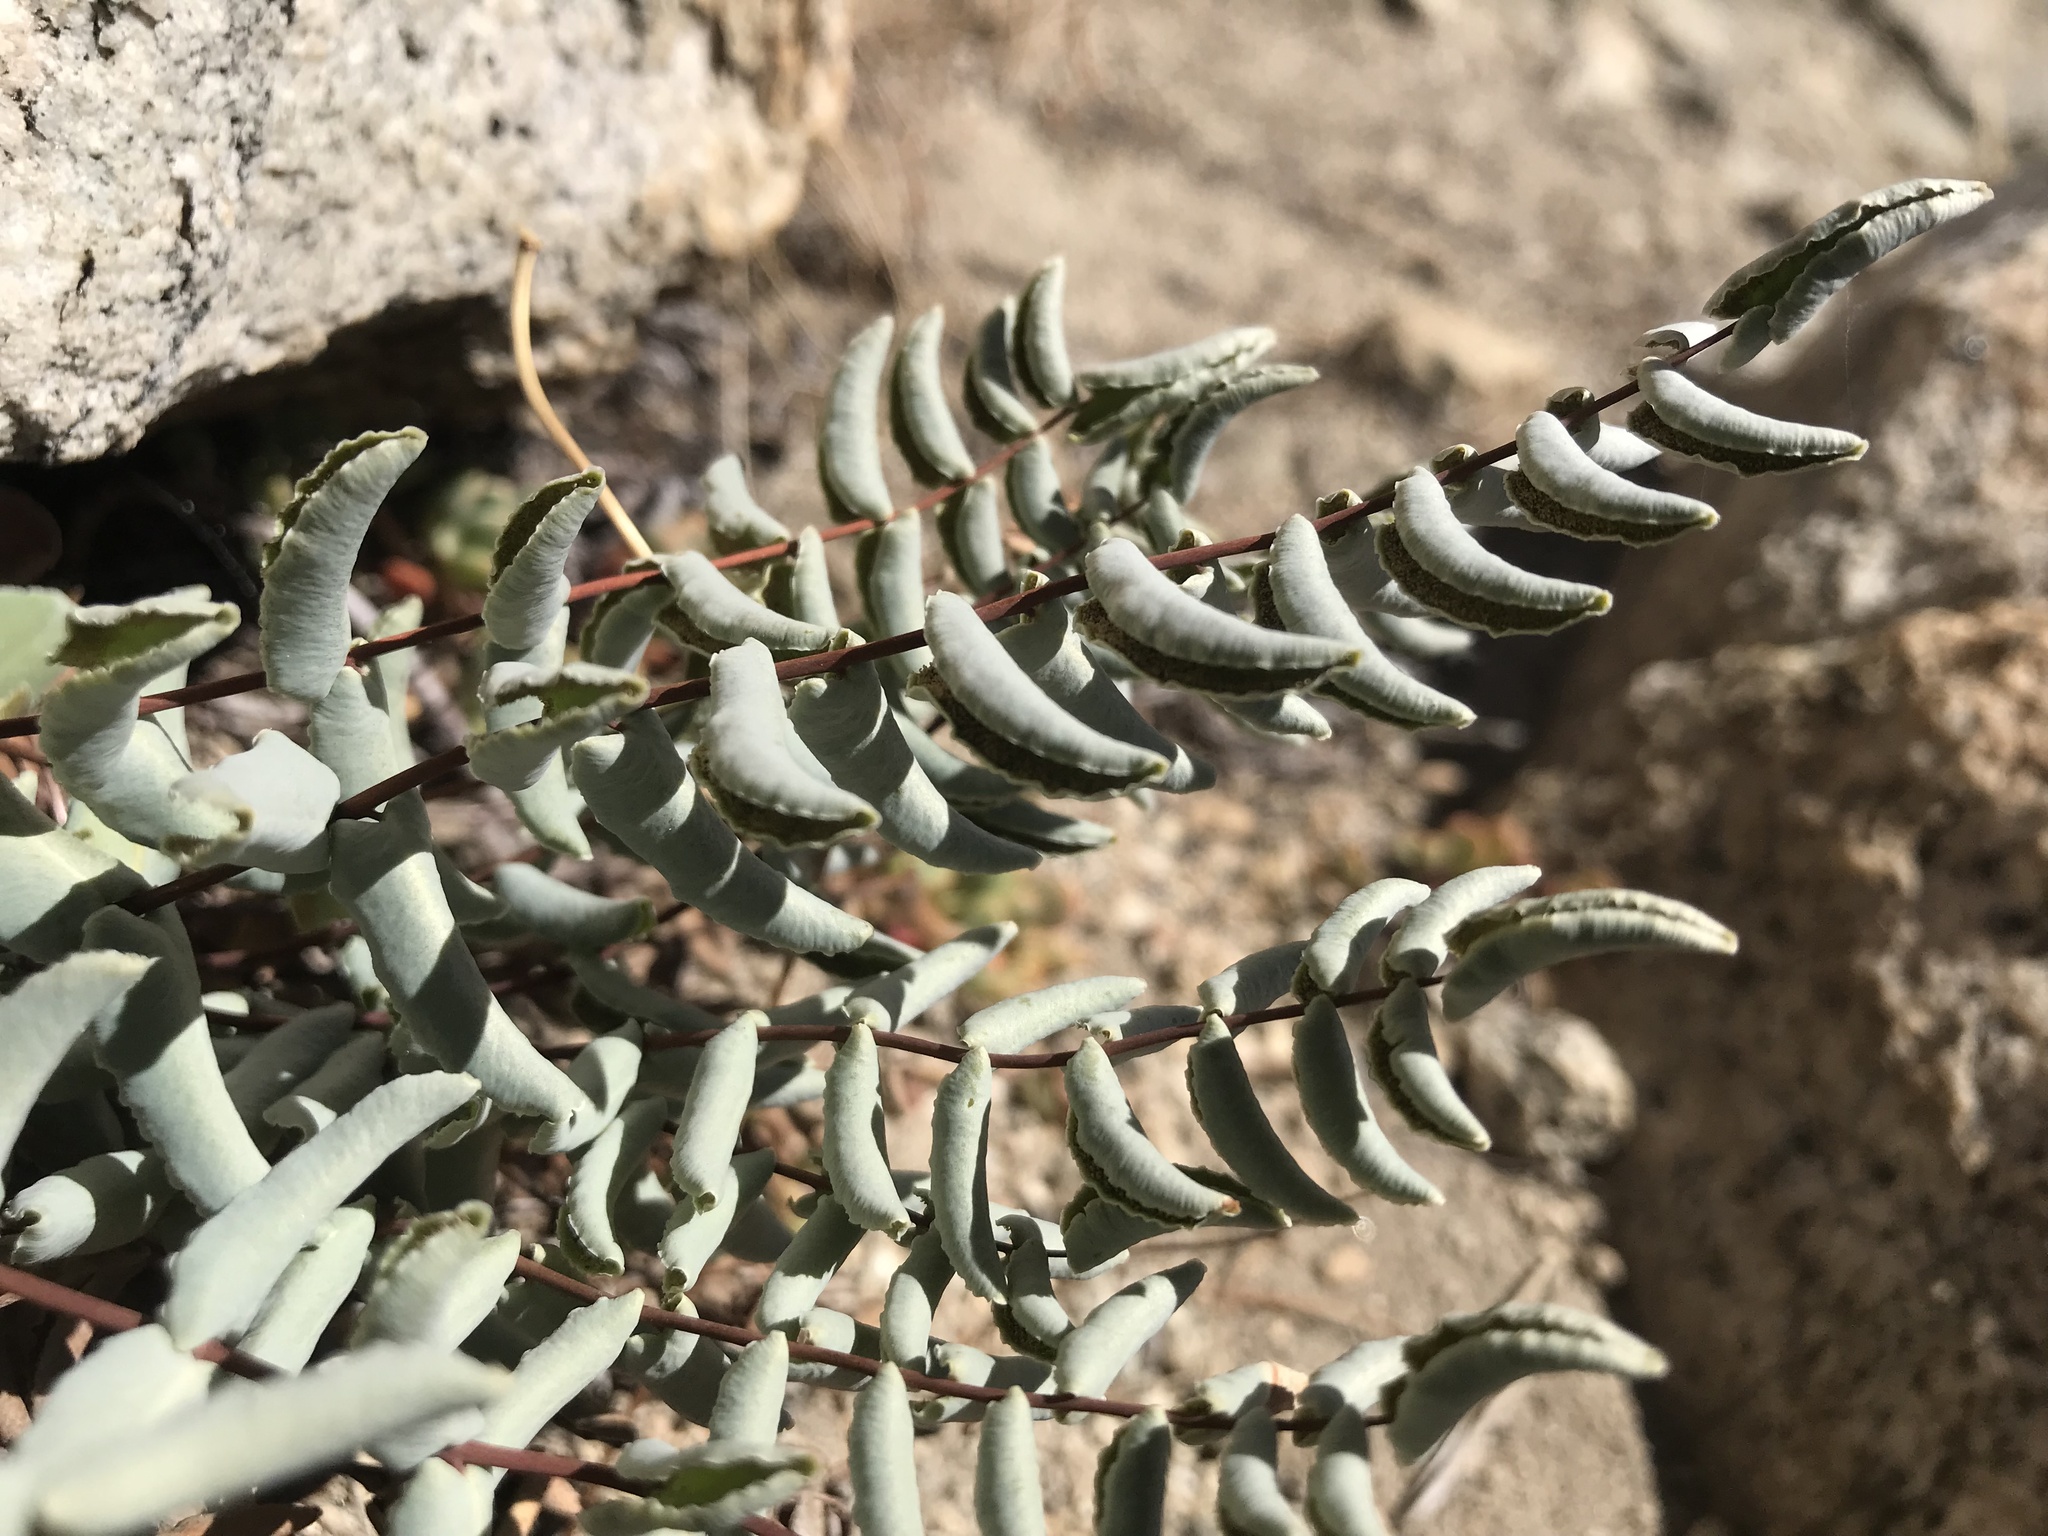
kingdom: Plantae
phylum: Tracheophyta
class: Polypodiopsida
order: Polypodiales
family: Pteridaceae
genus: Pellaea
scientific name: Pellaea bridgesii
